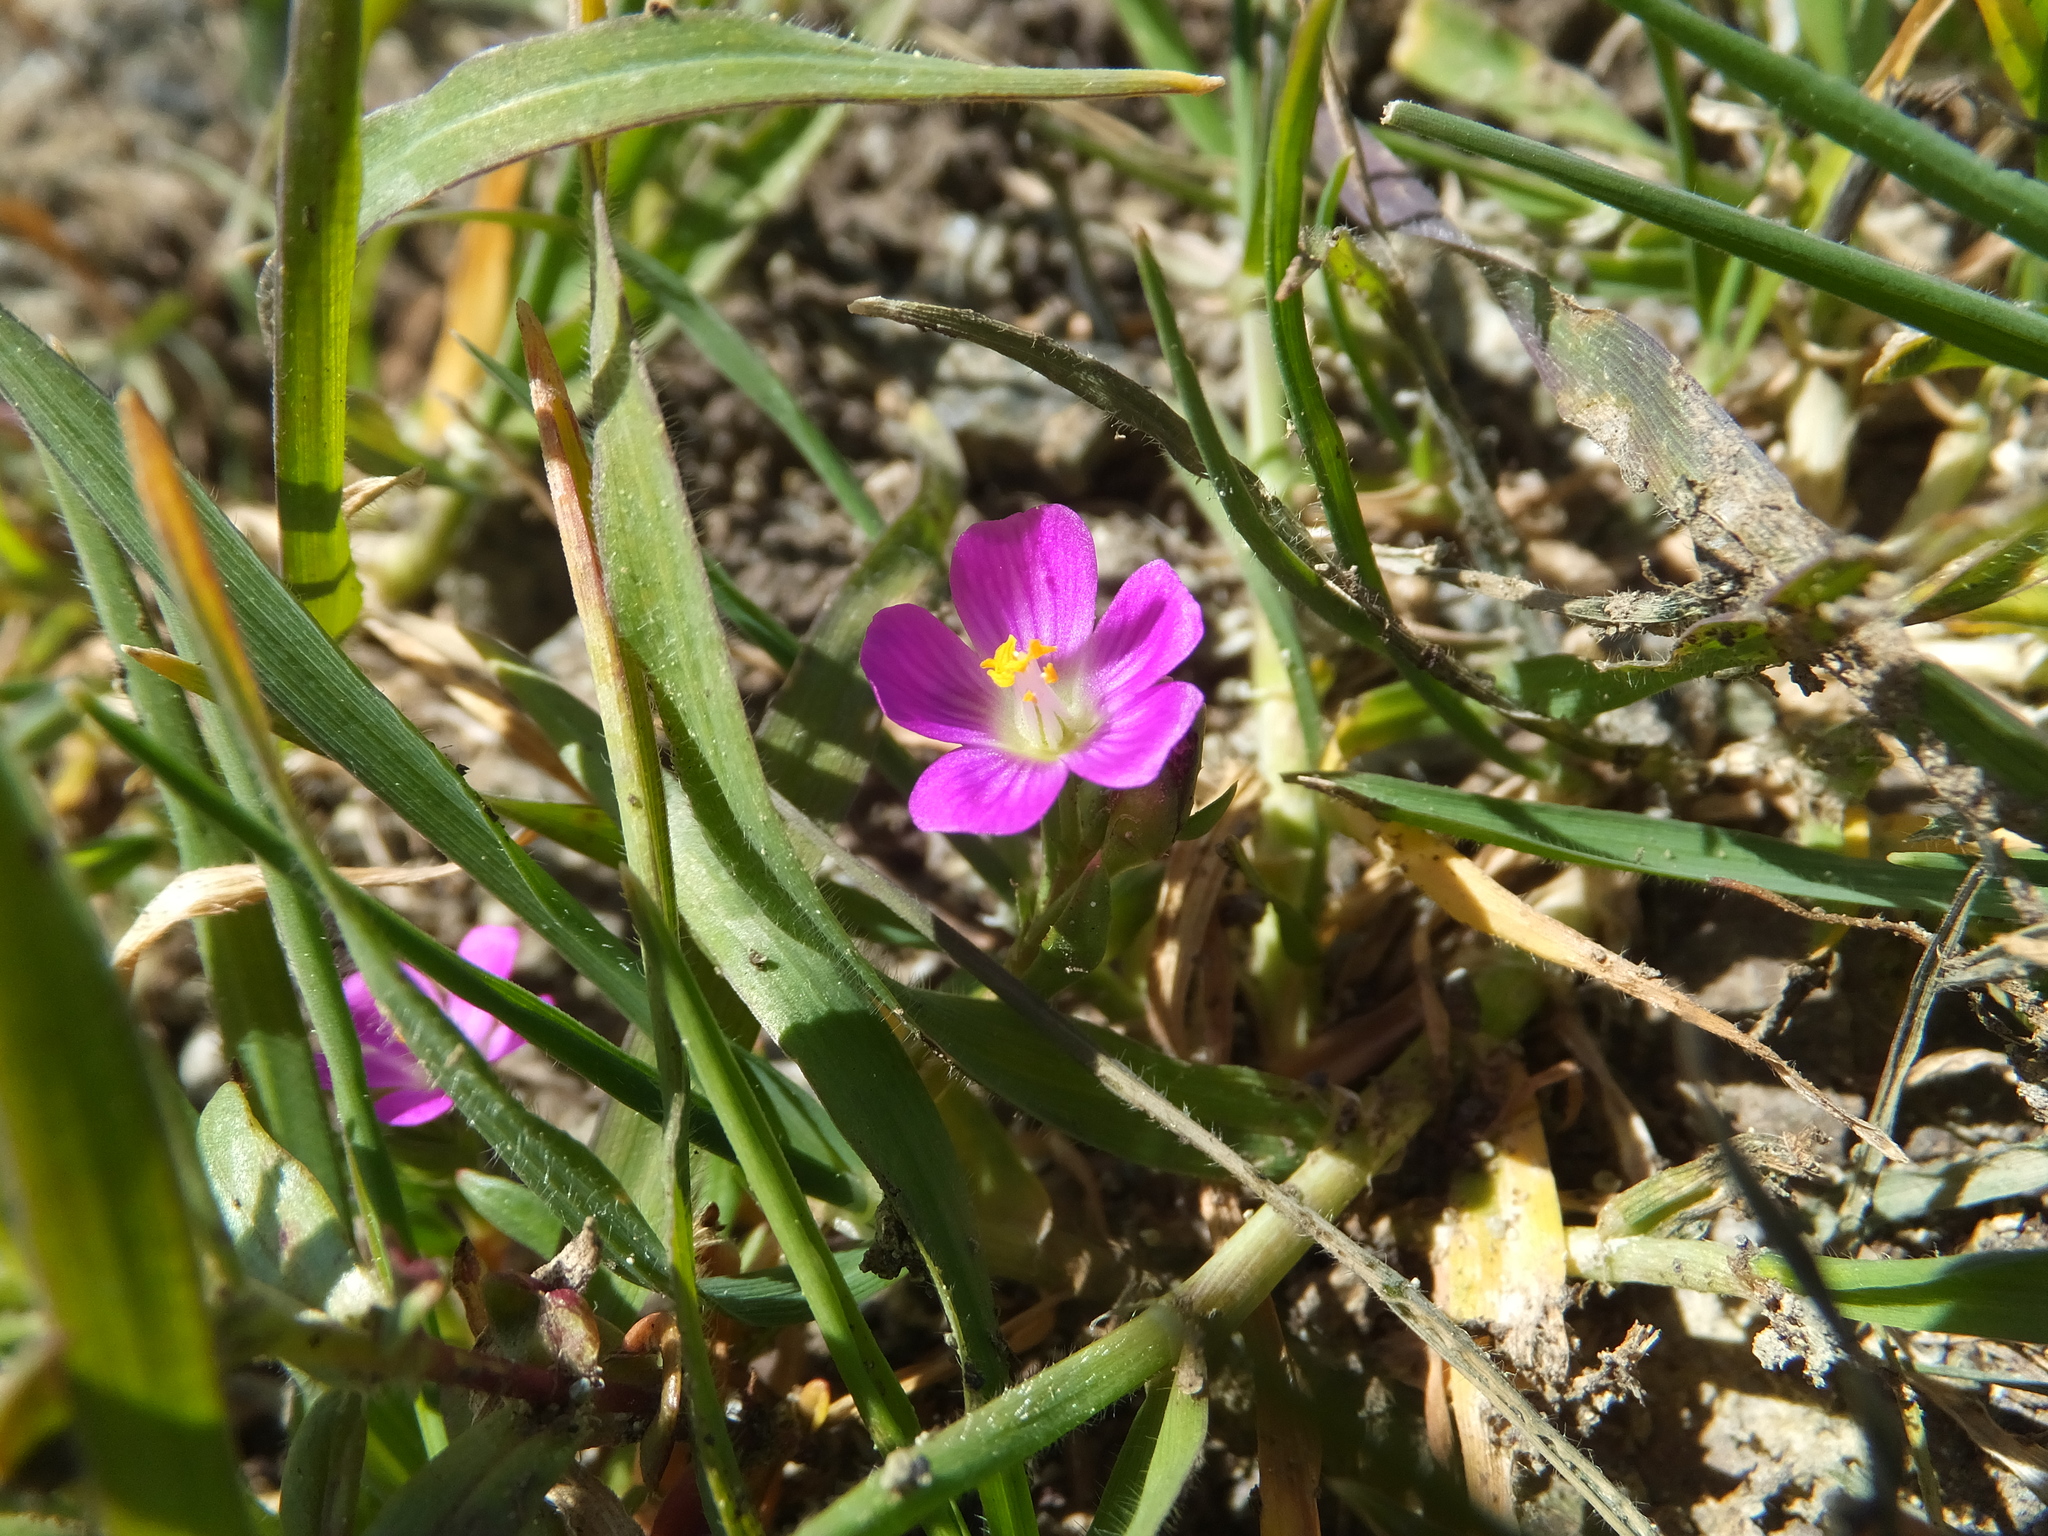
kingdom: Plantae
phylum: Tracheophyta
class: Magnoliopsida
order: Caryophyllales
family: Montiaceae
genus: Calandrinia
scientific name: Calandrinia menziesii
